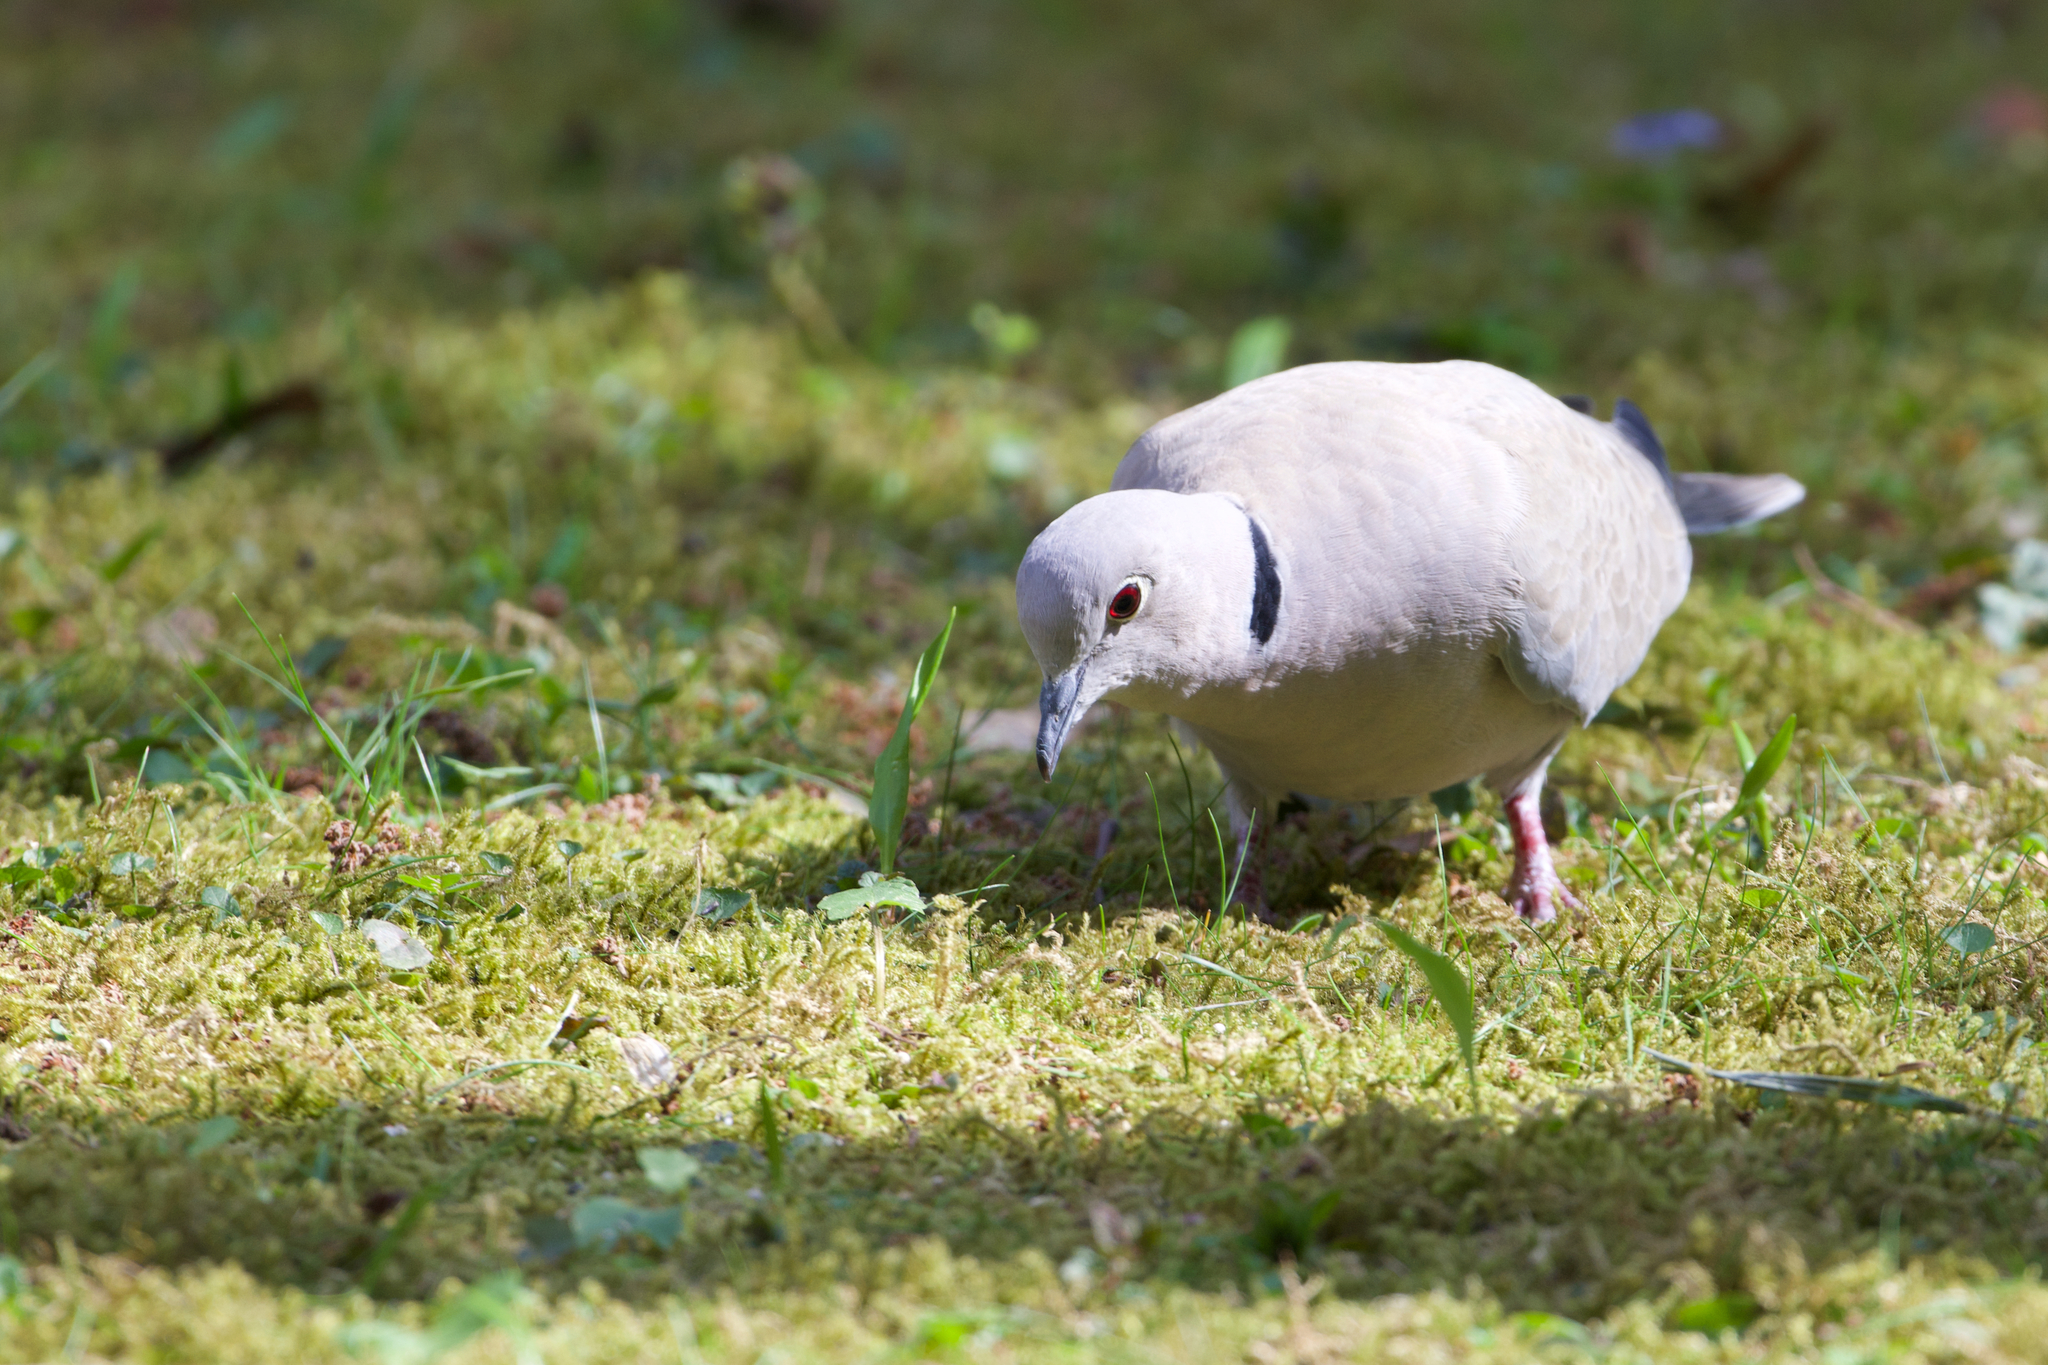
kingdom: Animalia
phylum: Chordata
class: Aves
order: Columbiformes
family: Columbidae
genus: Streptopelia
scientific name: Streptopelia decaocto
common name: Eurasian collared dove
